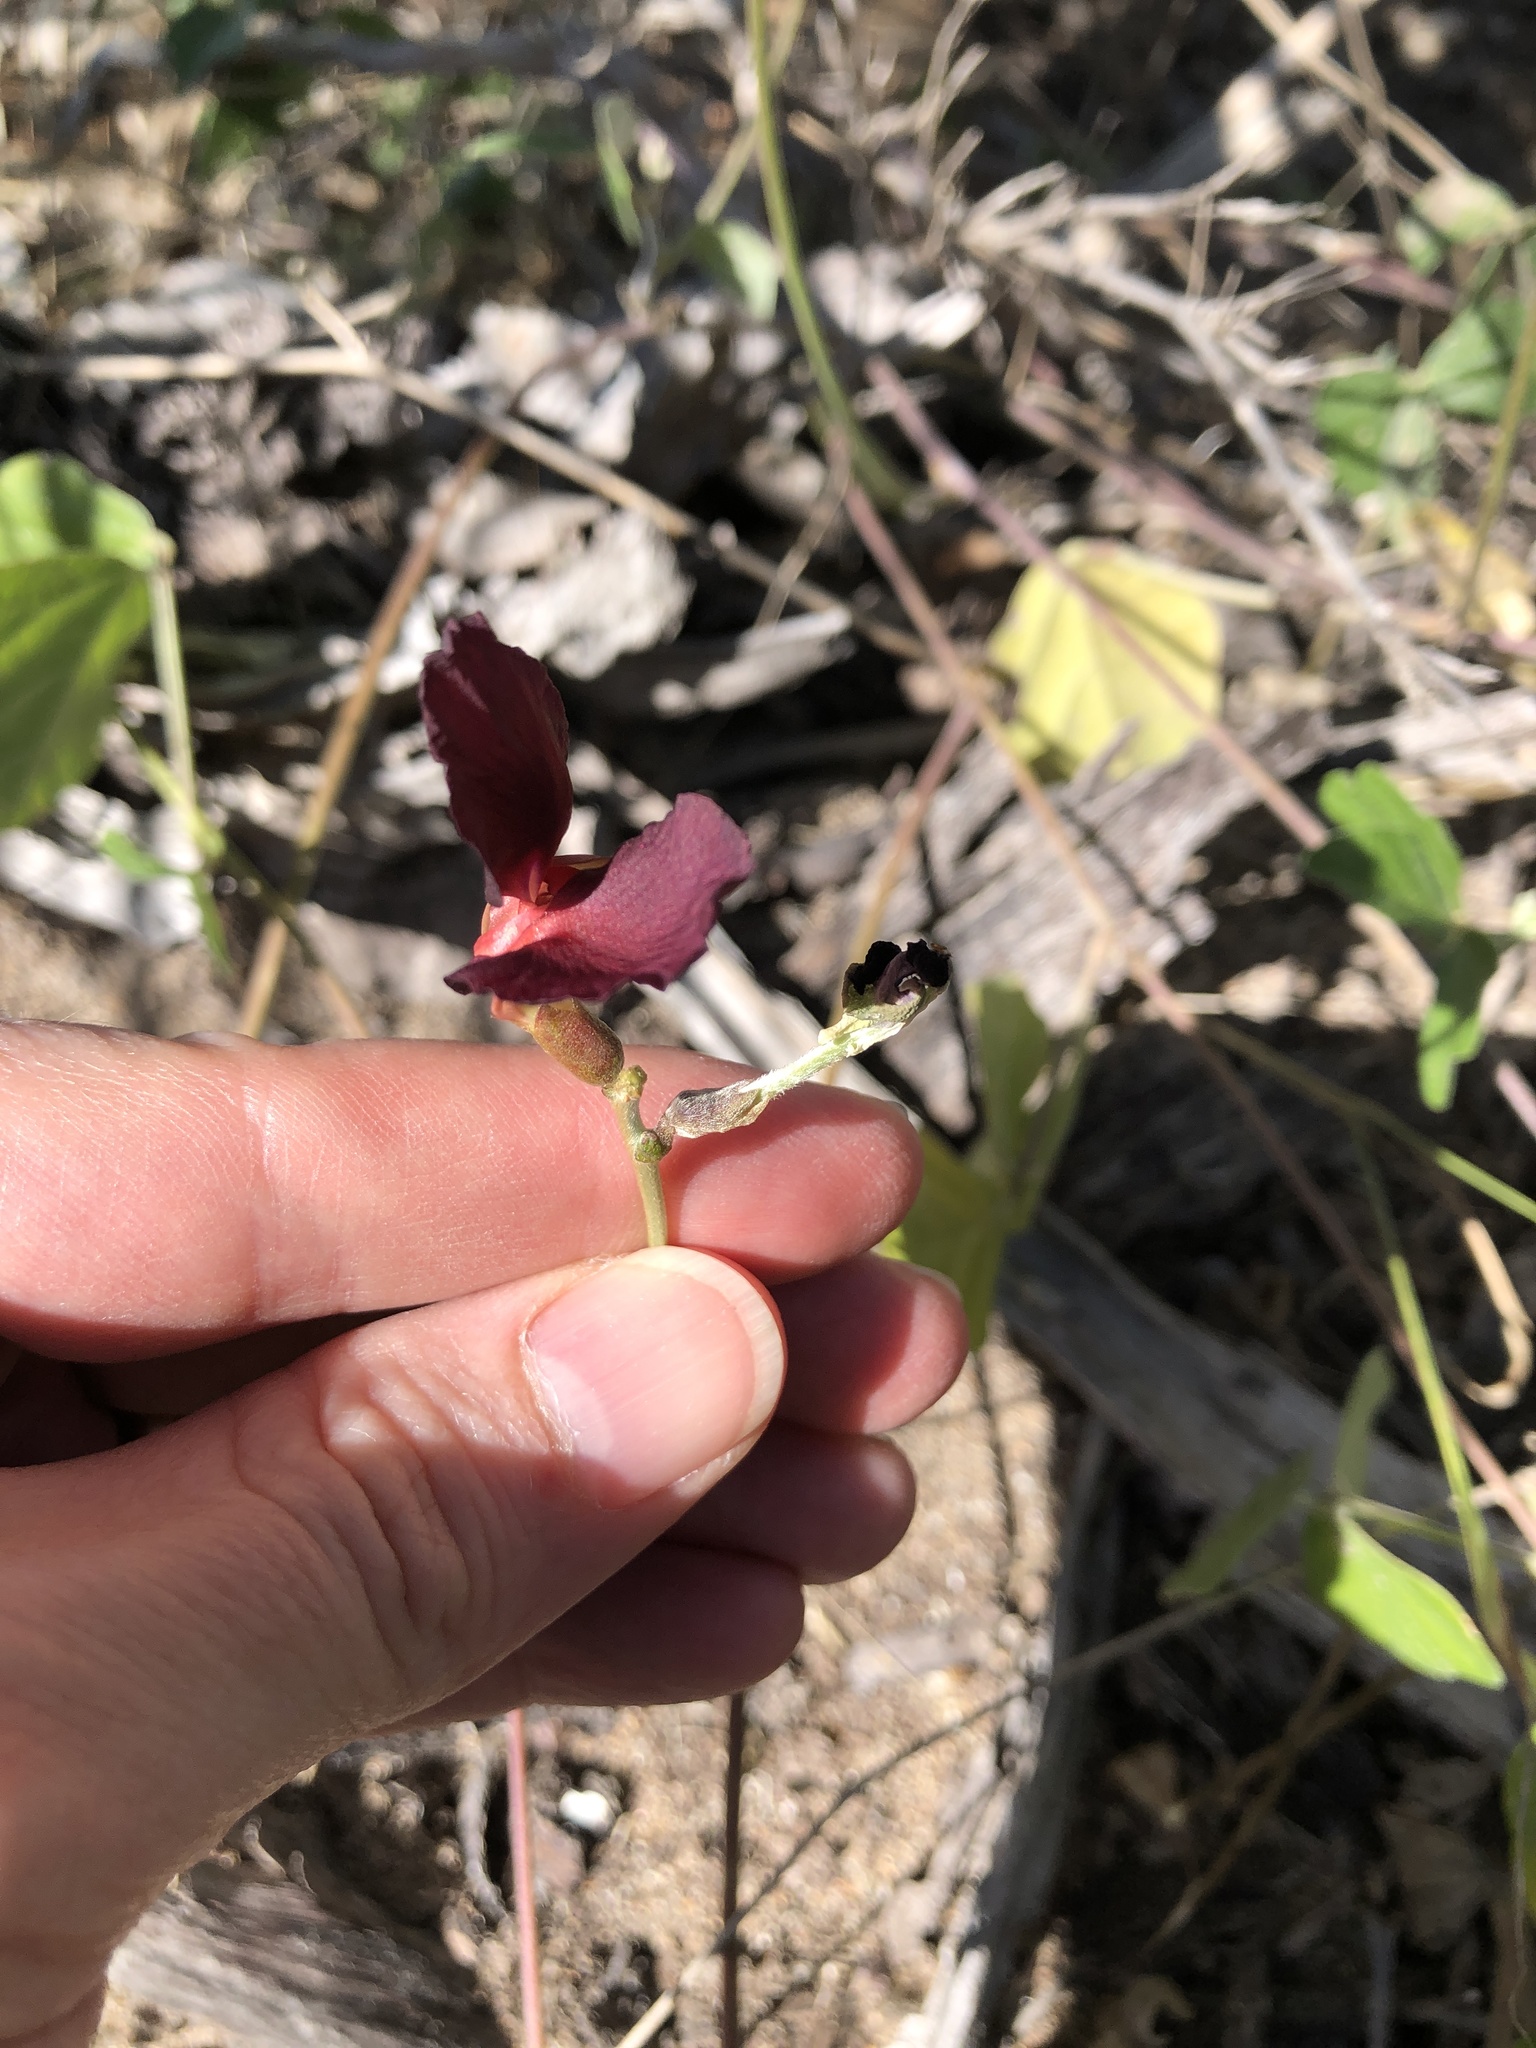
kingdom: Plantae
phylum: Tracheophyta
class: Magnoliopsida
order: Fabales
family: Fabaceae
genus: Macroptilium
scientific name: Macroptilium atropurpureum
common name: Purple bushbean
